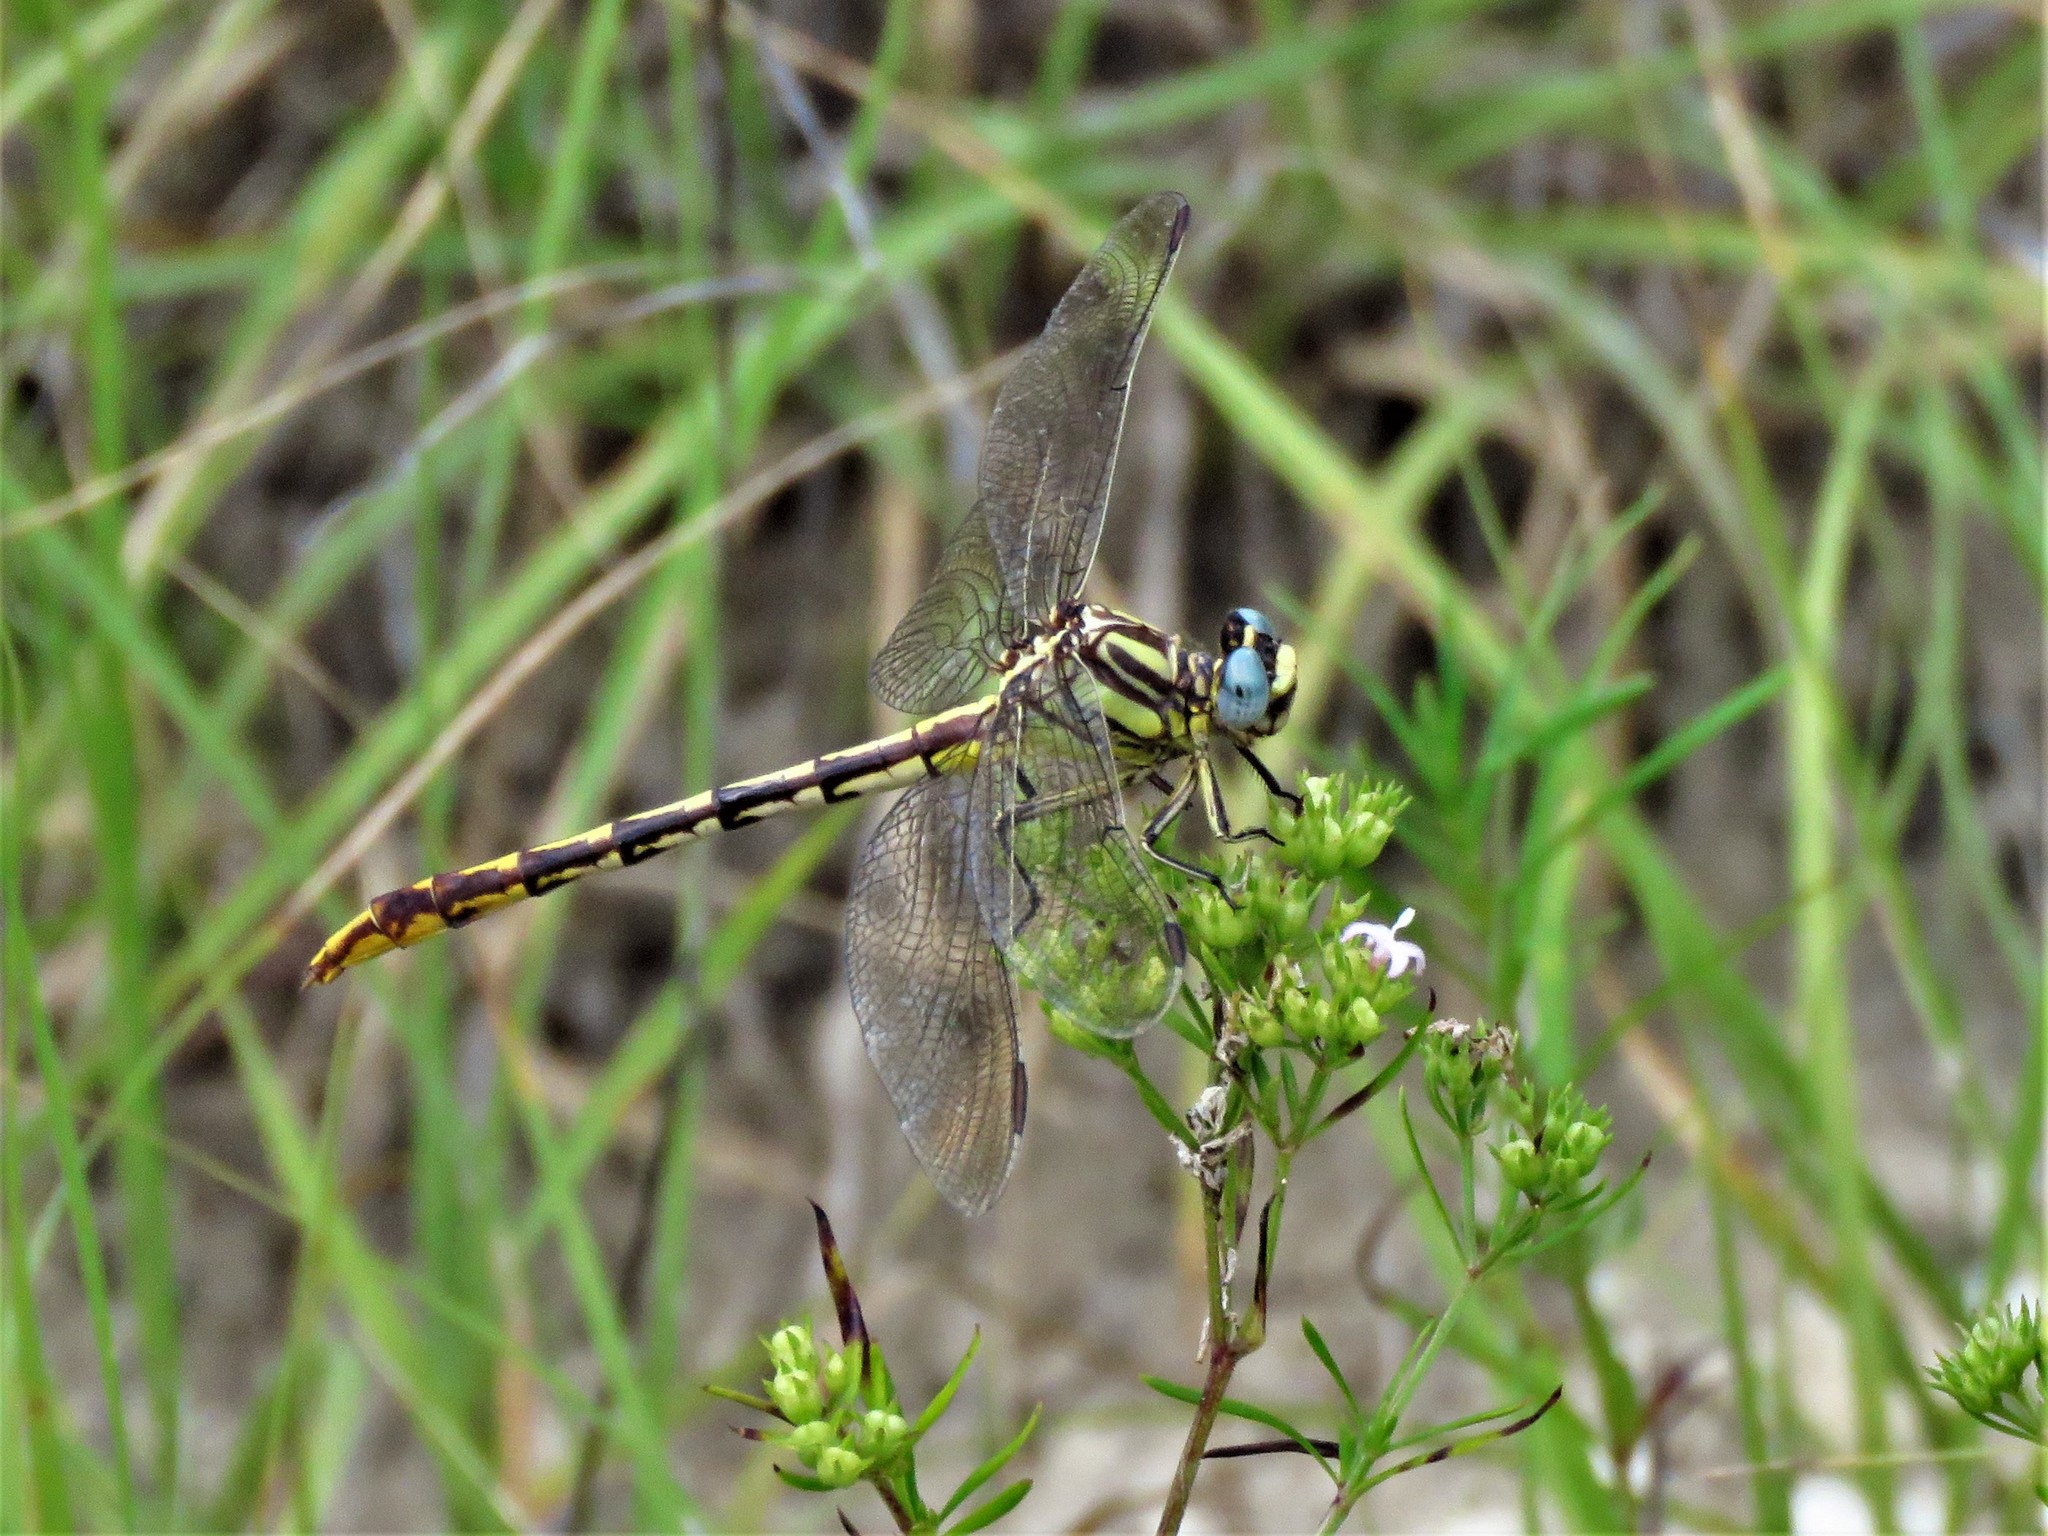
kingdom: Animalia
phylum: Arthropoda
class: Insecta
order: Odonata
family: Gomphidae
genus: Phanogomphus
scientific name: Phanogomphus militaris
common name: Sulphur-tipped clubtail
